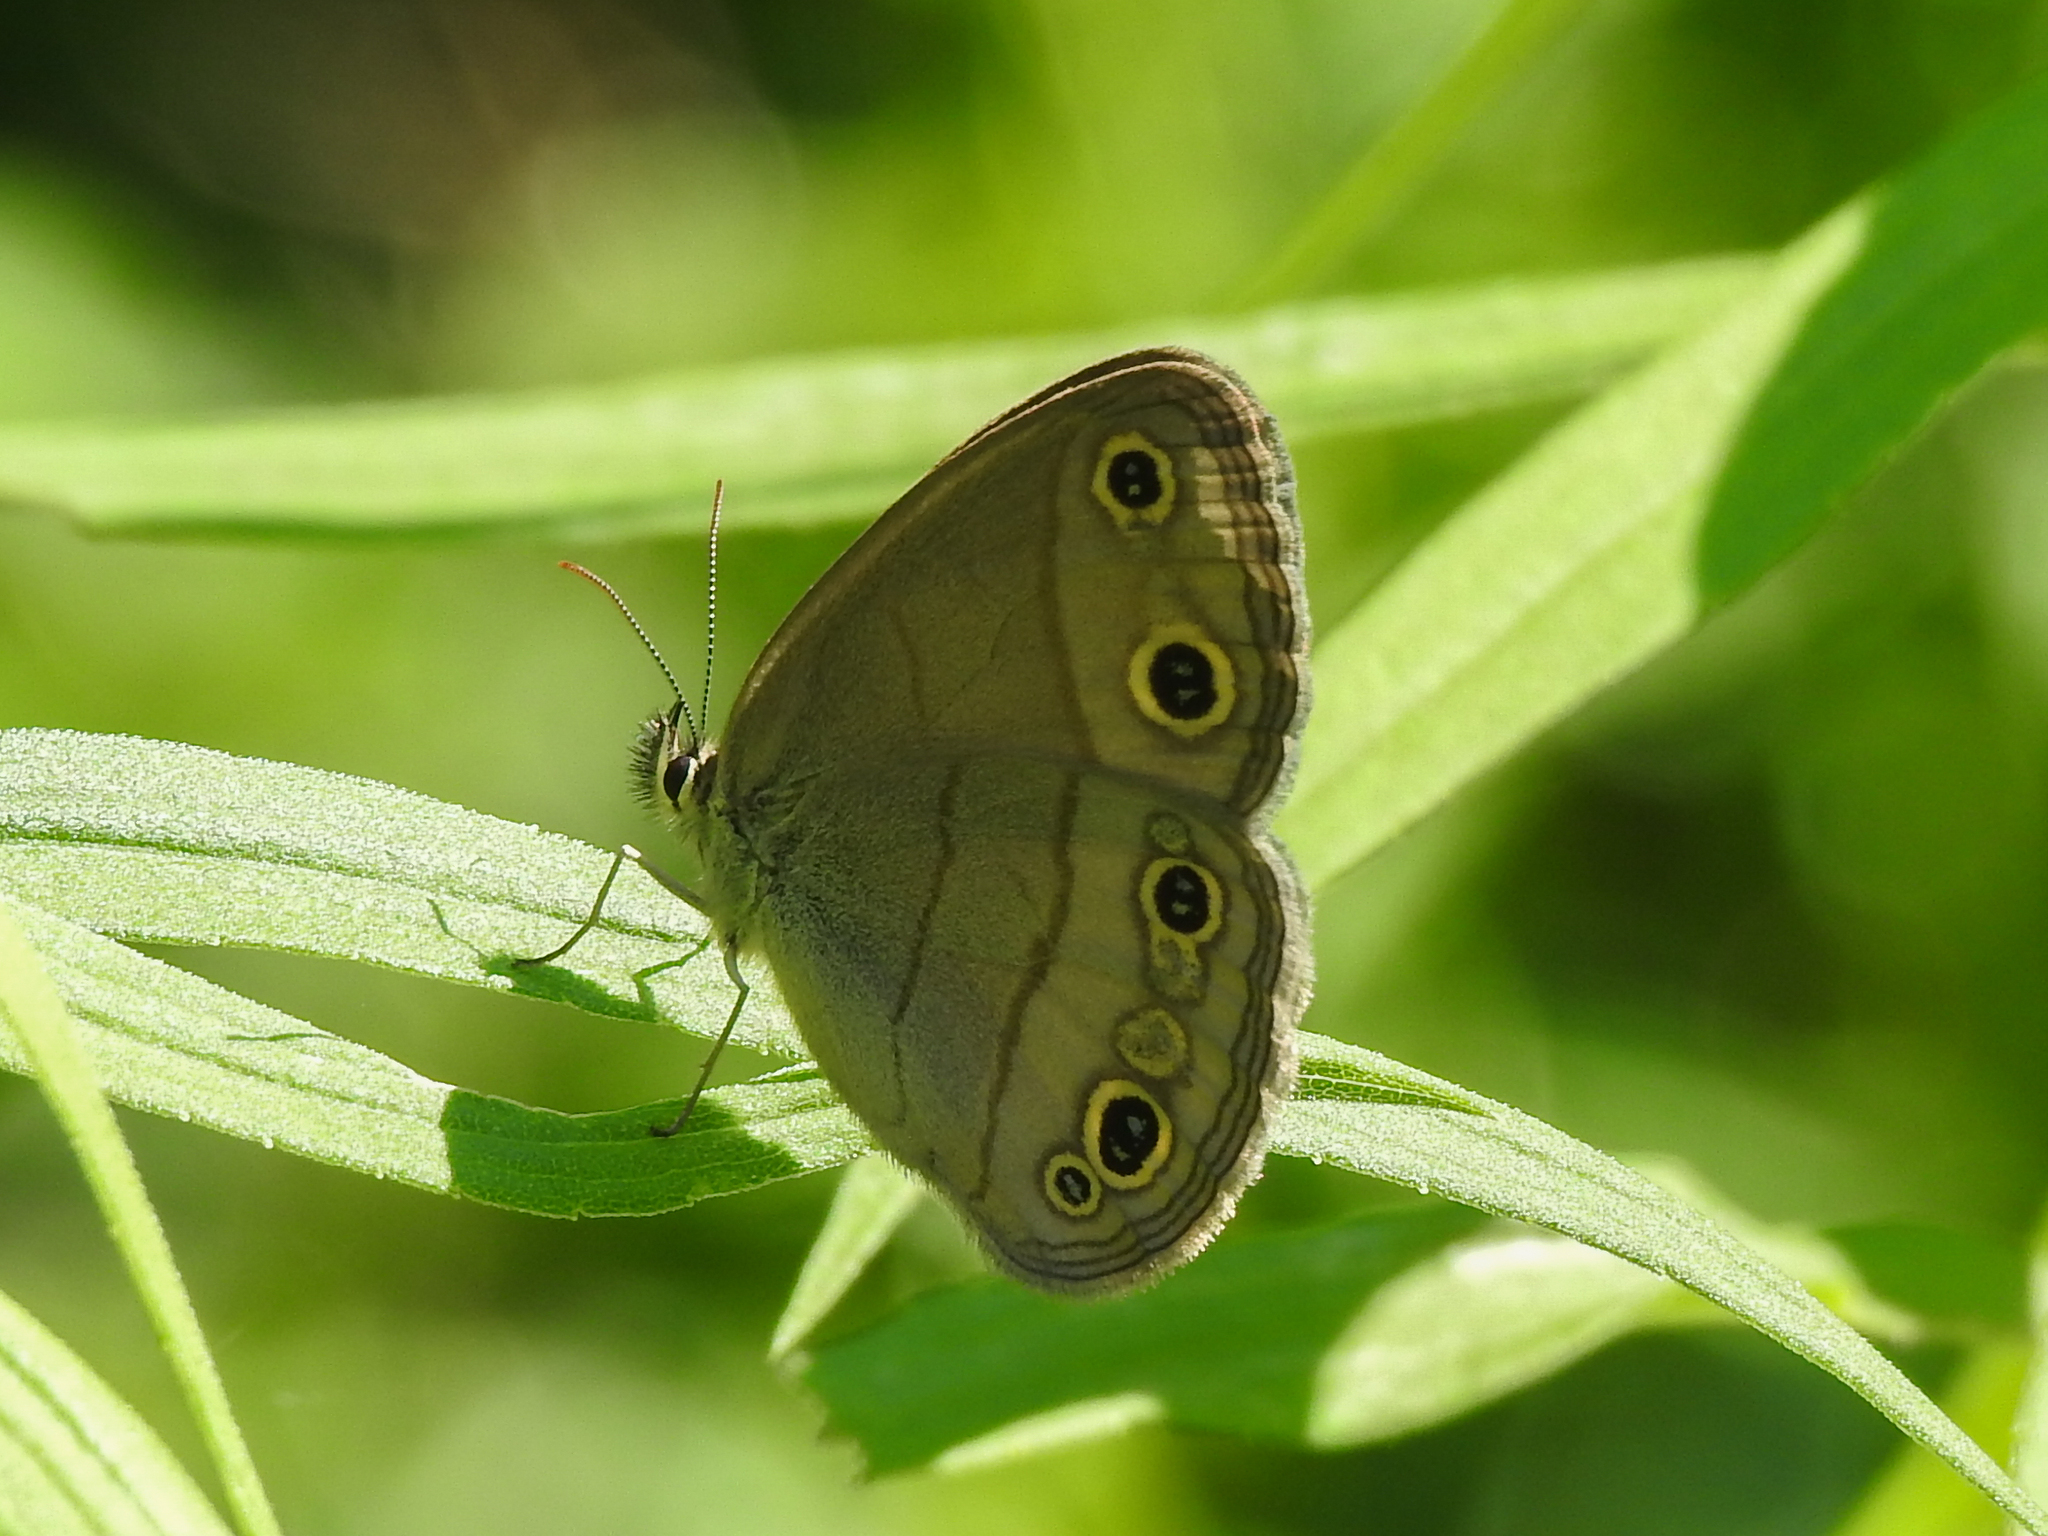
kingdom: Animalia
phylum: Arthropoda
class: Insecta
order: Lepidoptera
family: Nymphalidae
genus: Euptychia
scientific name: Euptychia cymela
